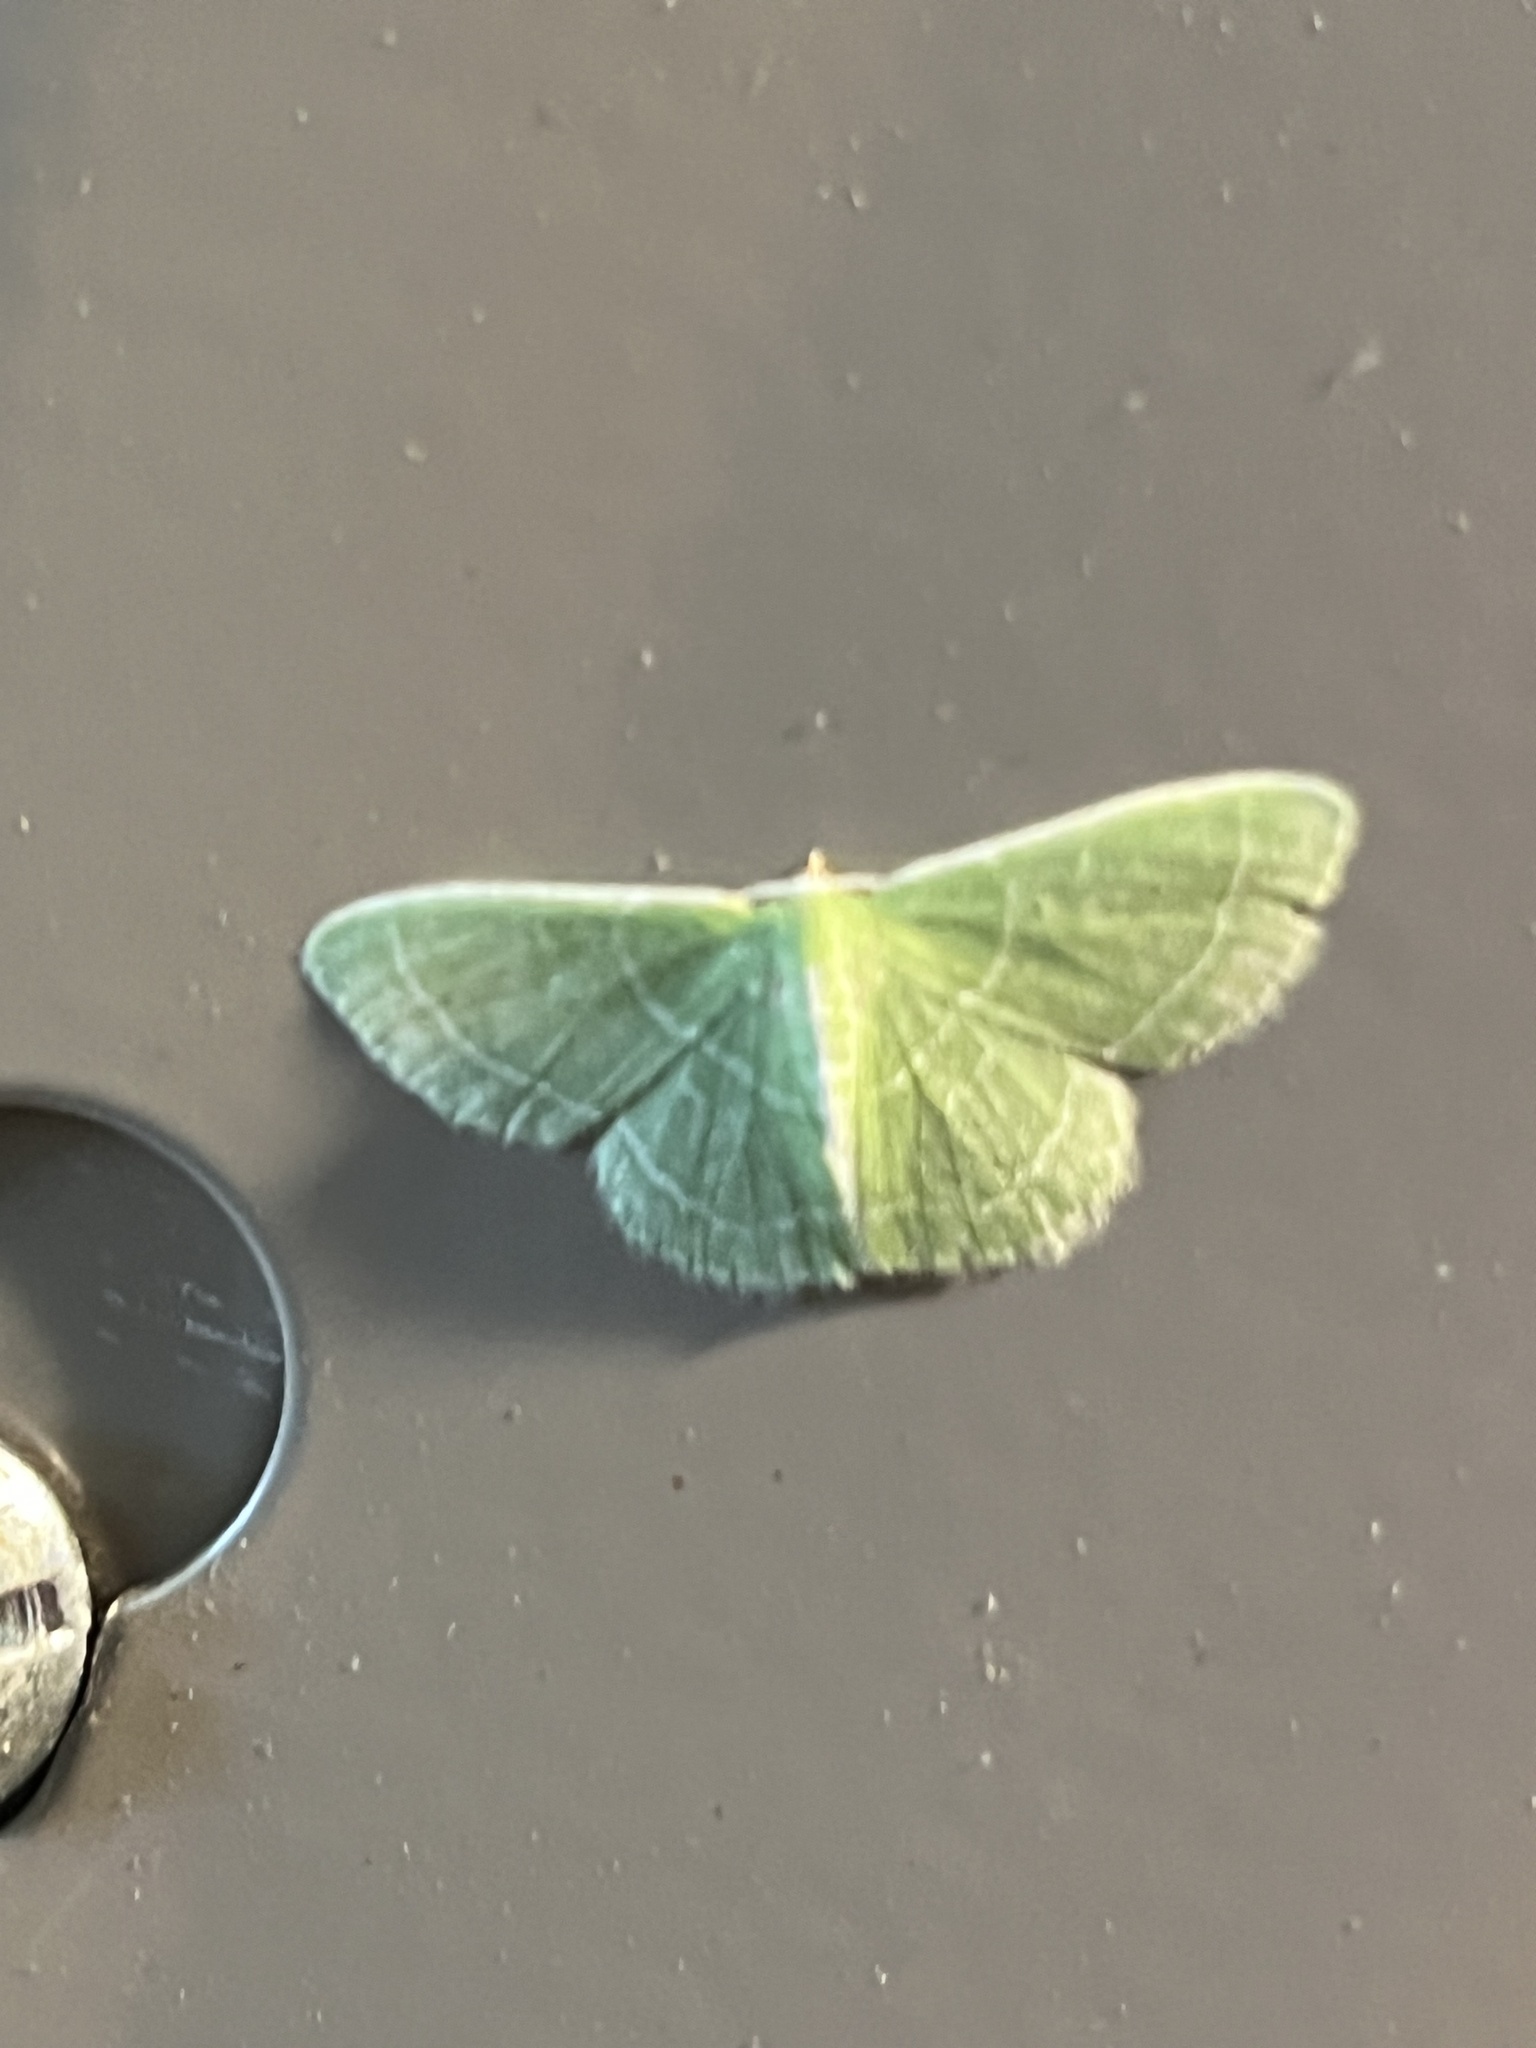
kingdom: Animalia
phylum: Arthropoda
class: Insecta
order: Lepidoptera
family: Geometridae
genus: Synchlora
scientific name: Synchlora frondaria
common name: Southern emerald
